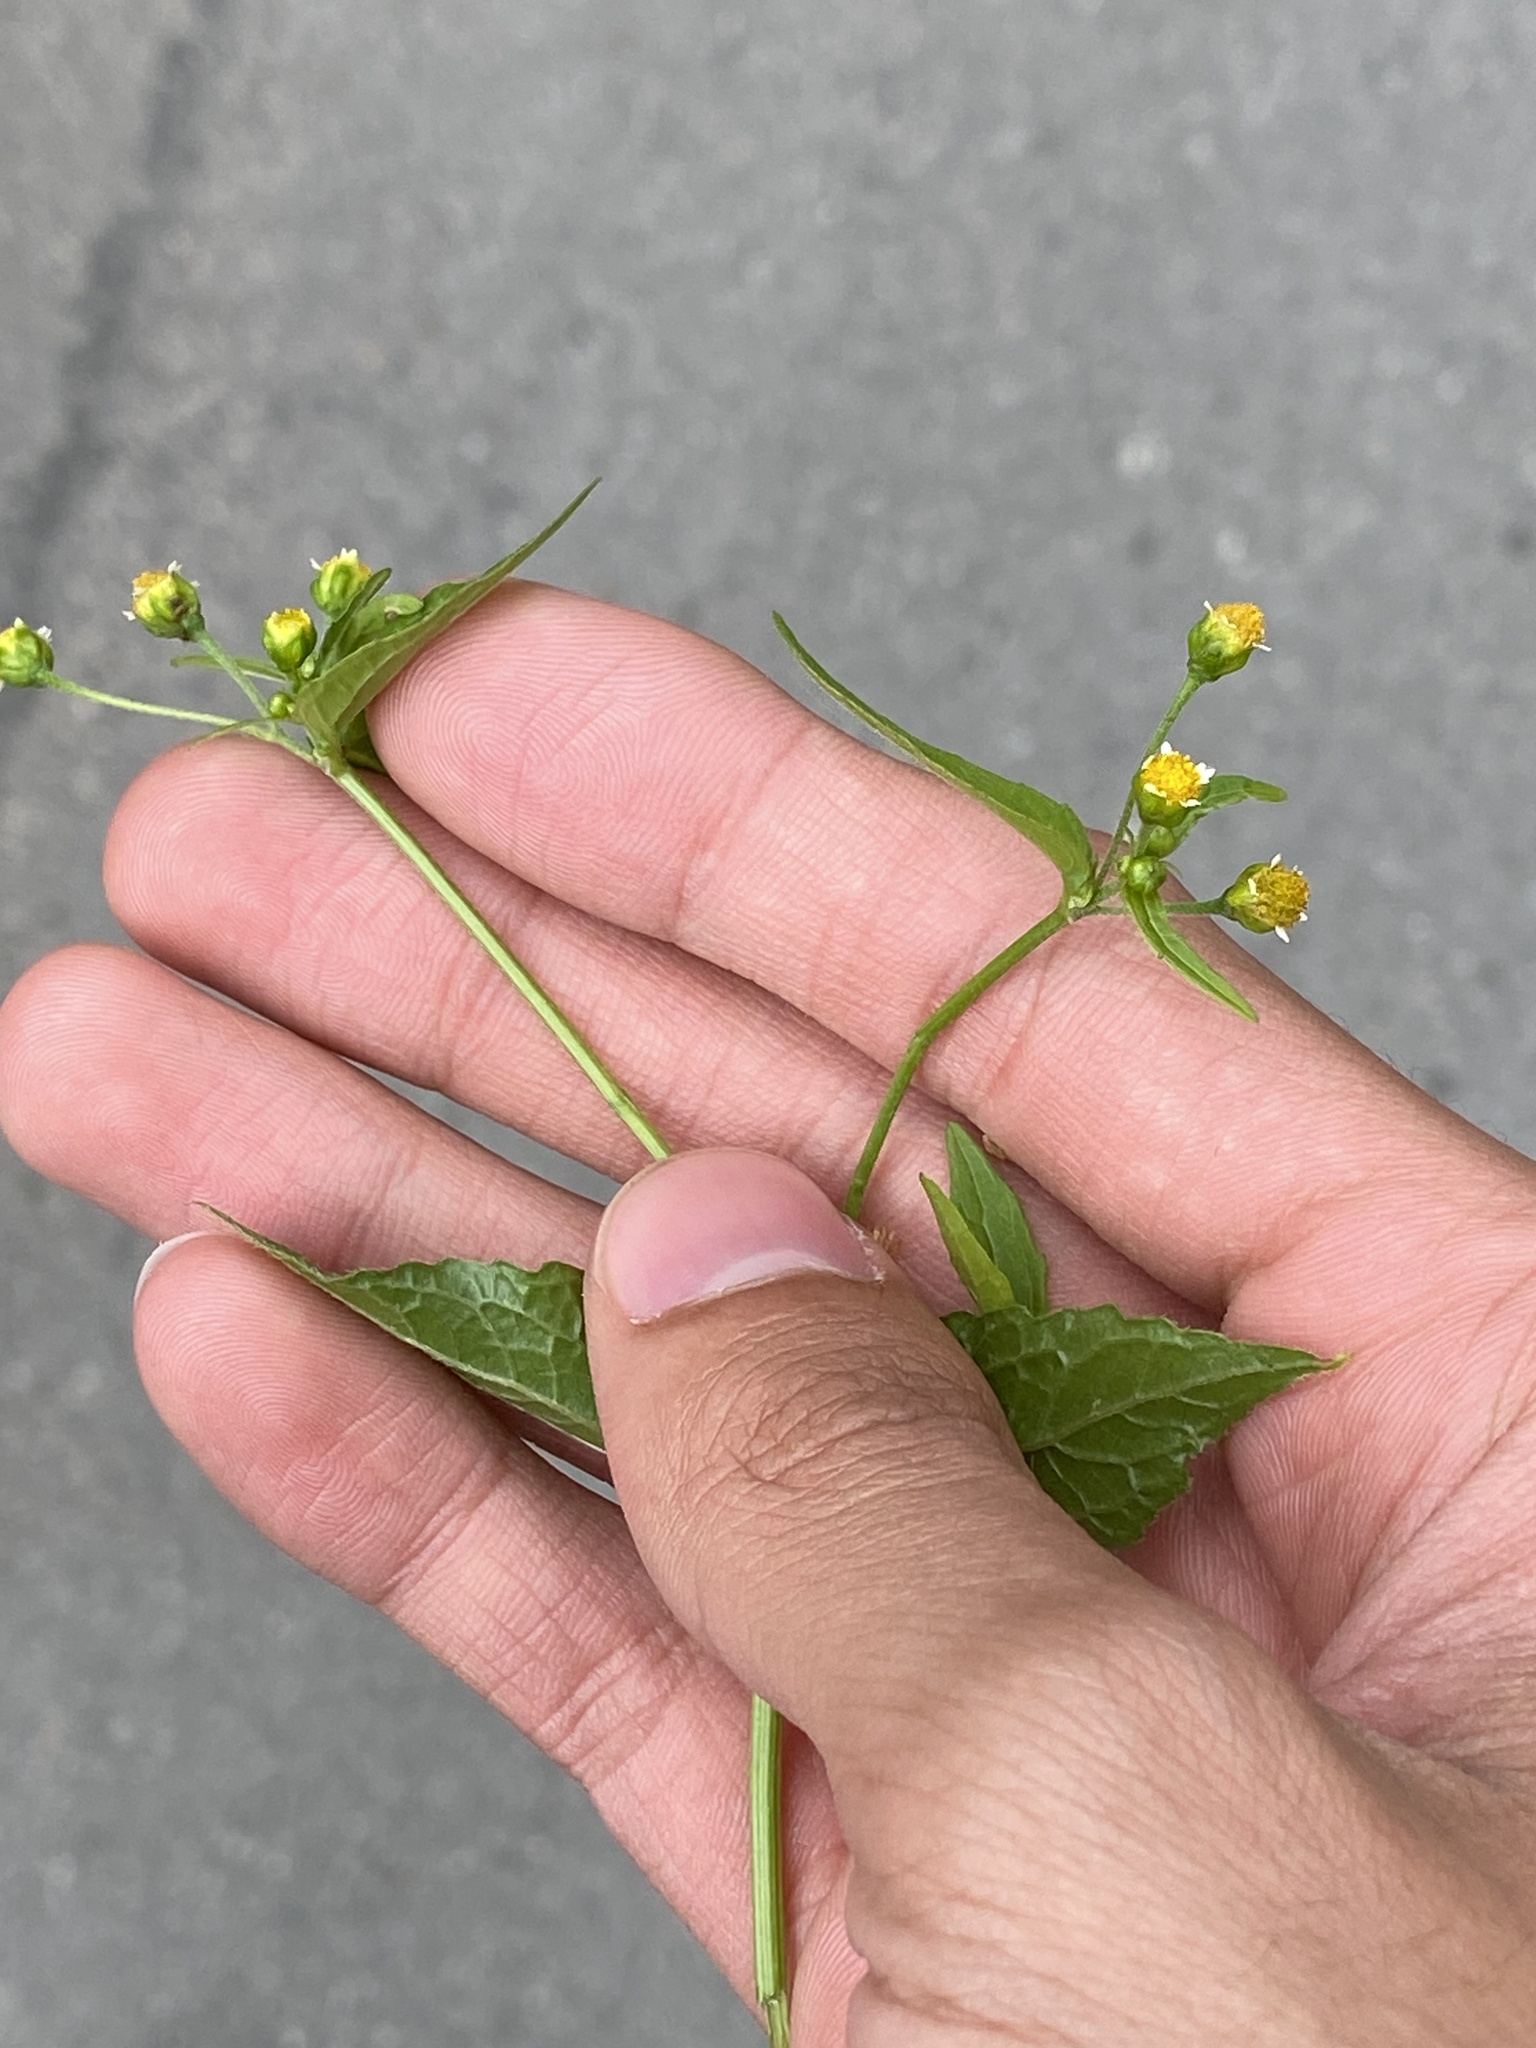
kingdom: Plantae
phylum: Tracheophyta
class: Magnoliopsida
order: Asterales
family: Asteraceae
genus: Galinsoga
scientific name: Galinsoga parviflora
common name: Gallant soldier
